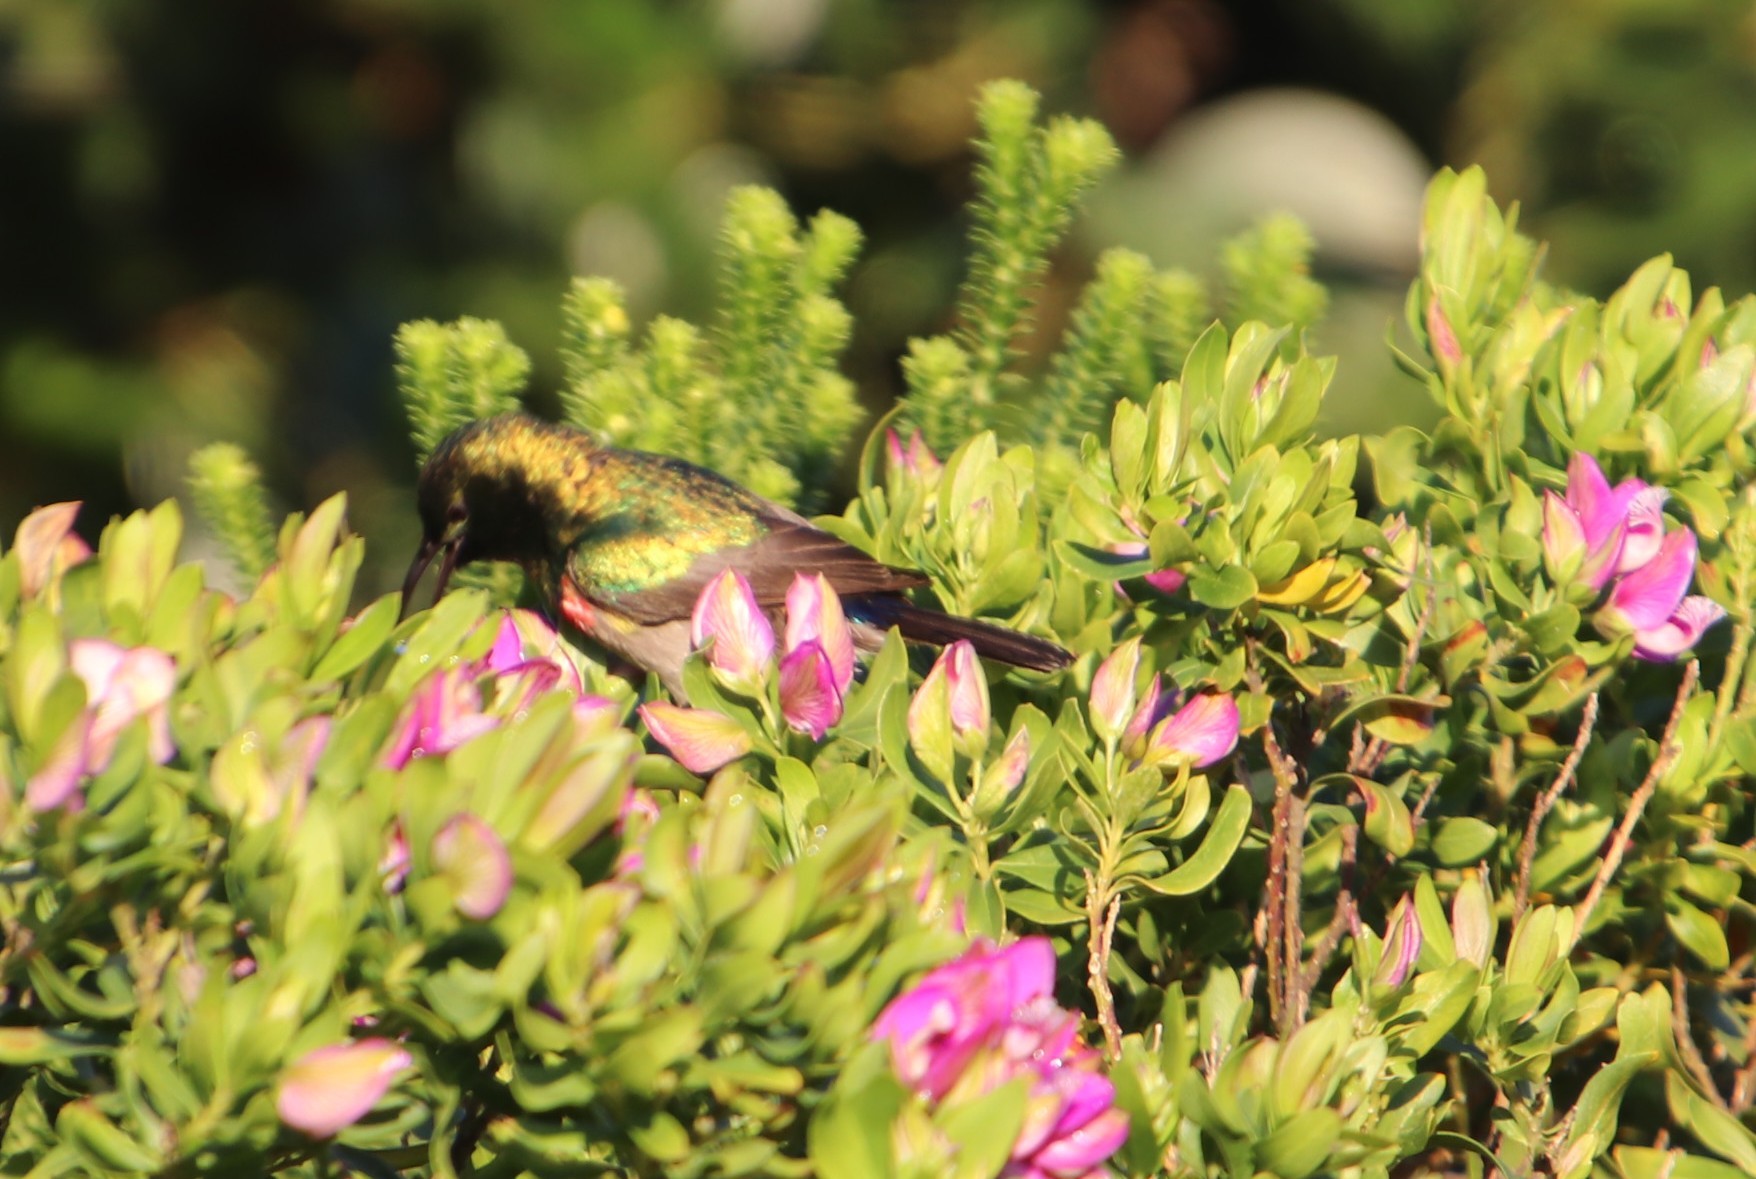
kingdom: Plantae
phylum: Tracheophyta
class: Magnoliopsida
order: Fabales
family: Polygalaceae
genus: Polygala
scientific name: Polygala myrtifolia
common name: Myrtle-leaf milkwort
